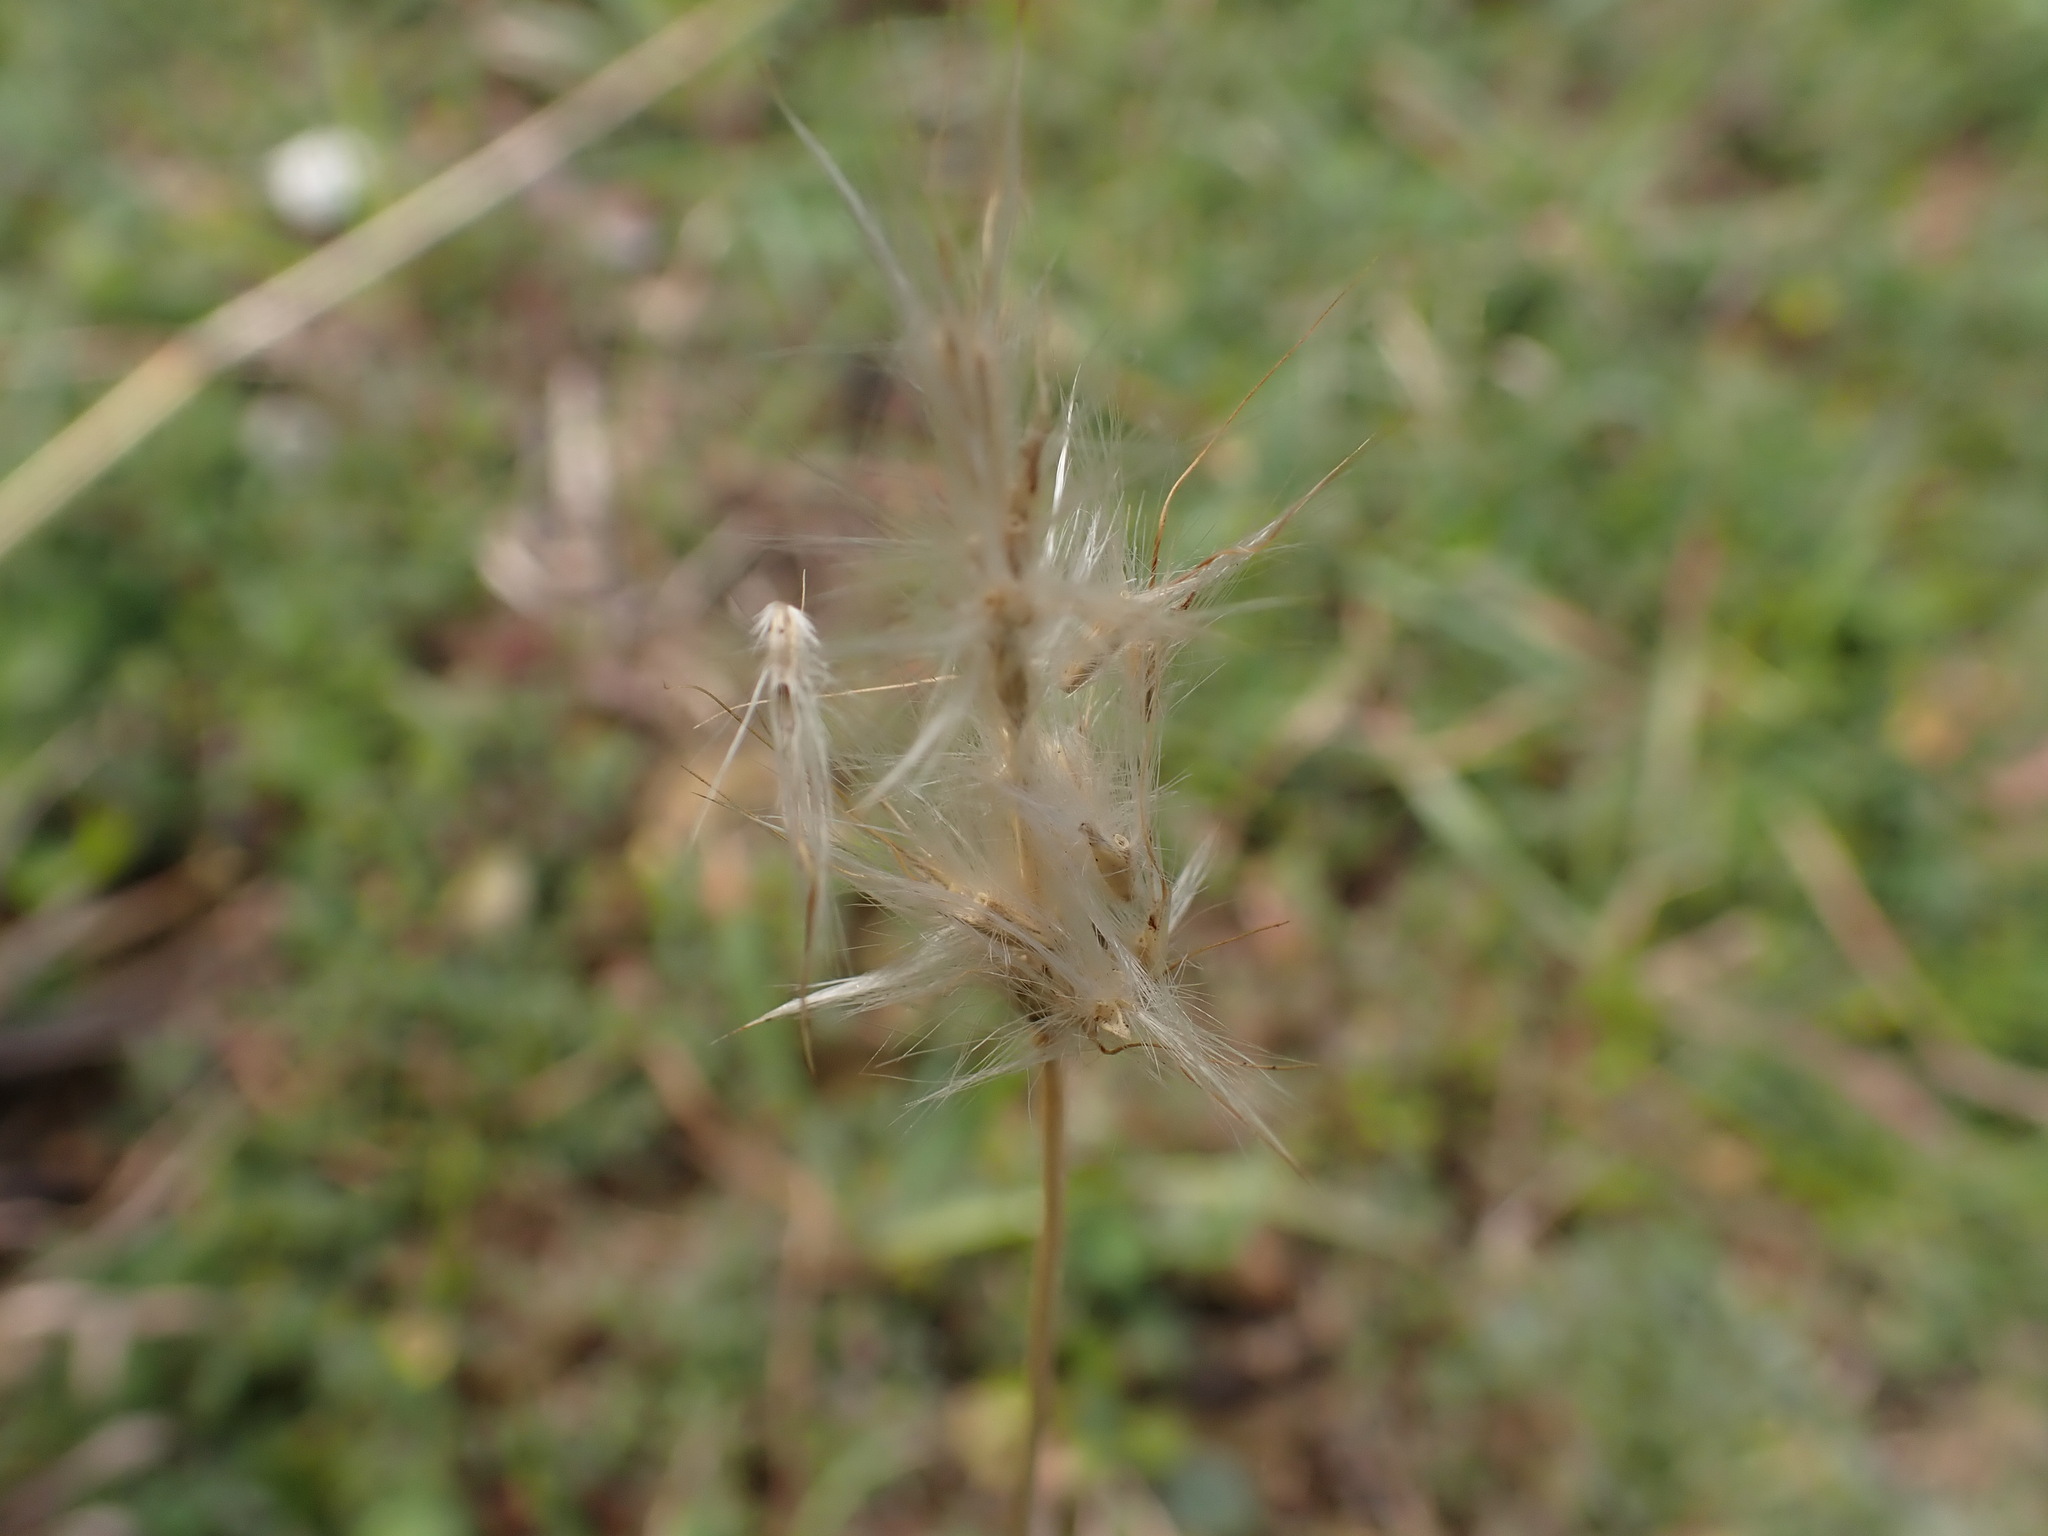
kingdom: Plantae
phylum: Tracheophyta
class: Liliopsida
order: Poales
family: Poaceae
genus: Bothriochloa
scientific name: Bothriochloa barbinodis
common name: Cane bluestem
